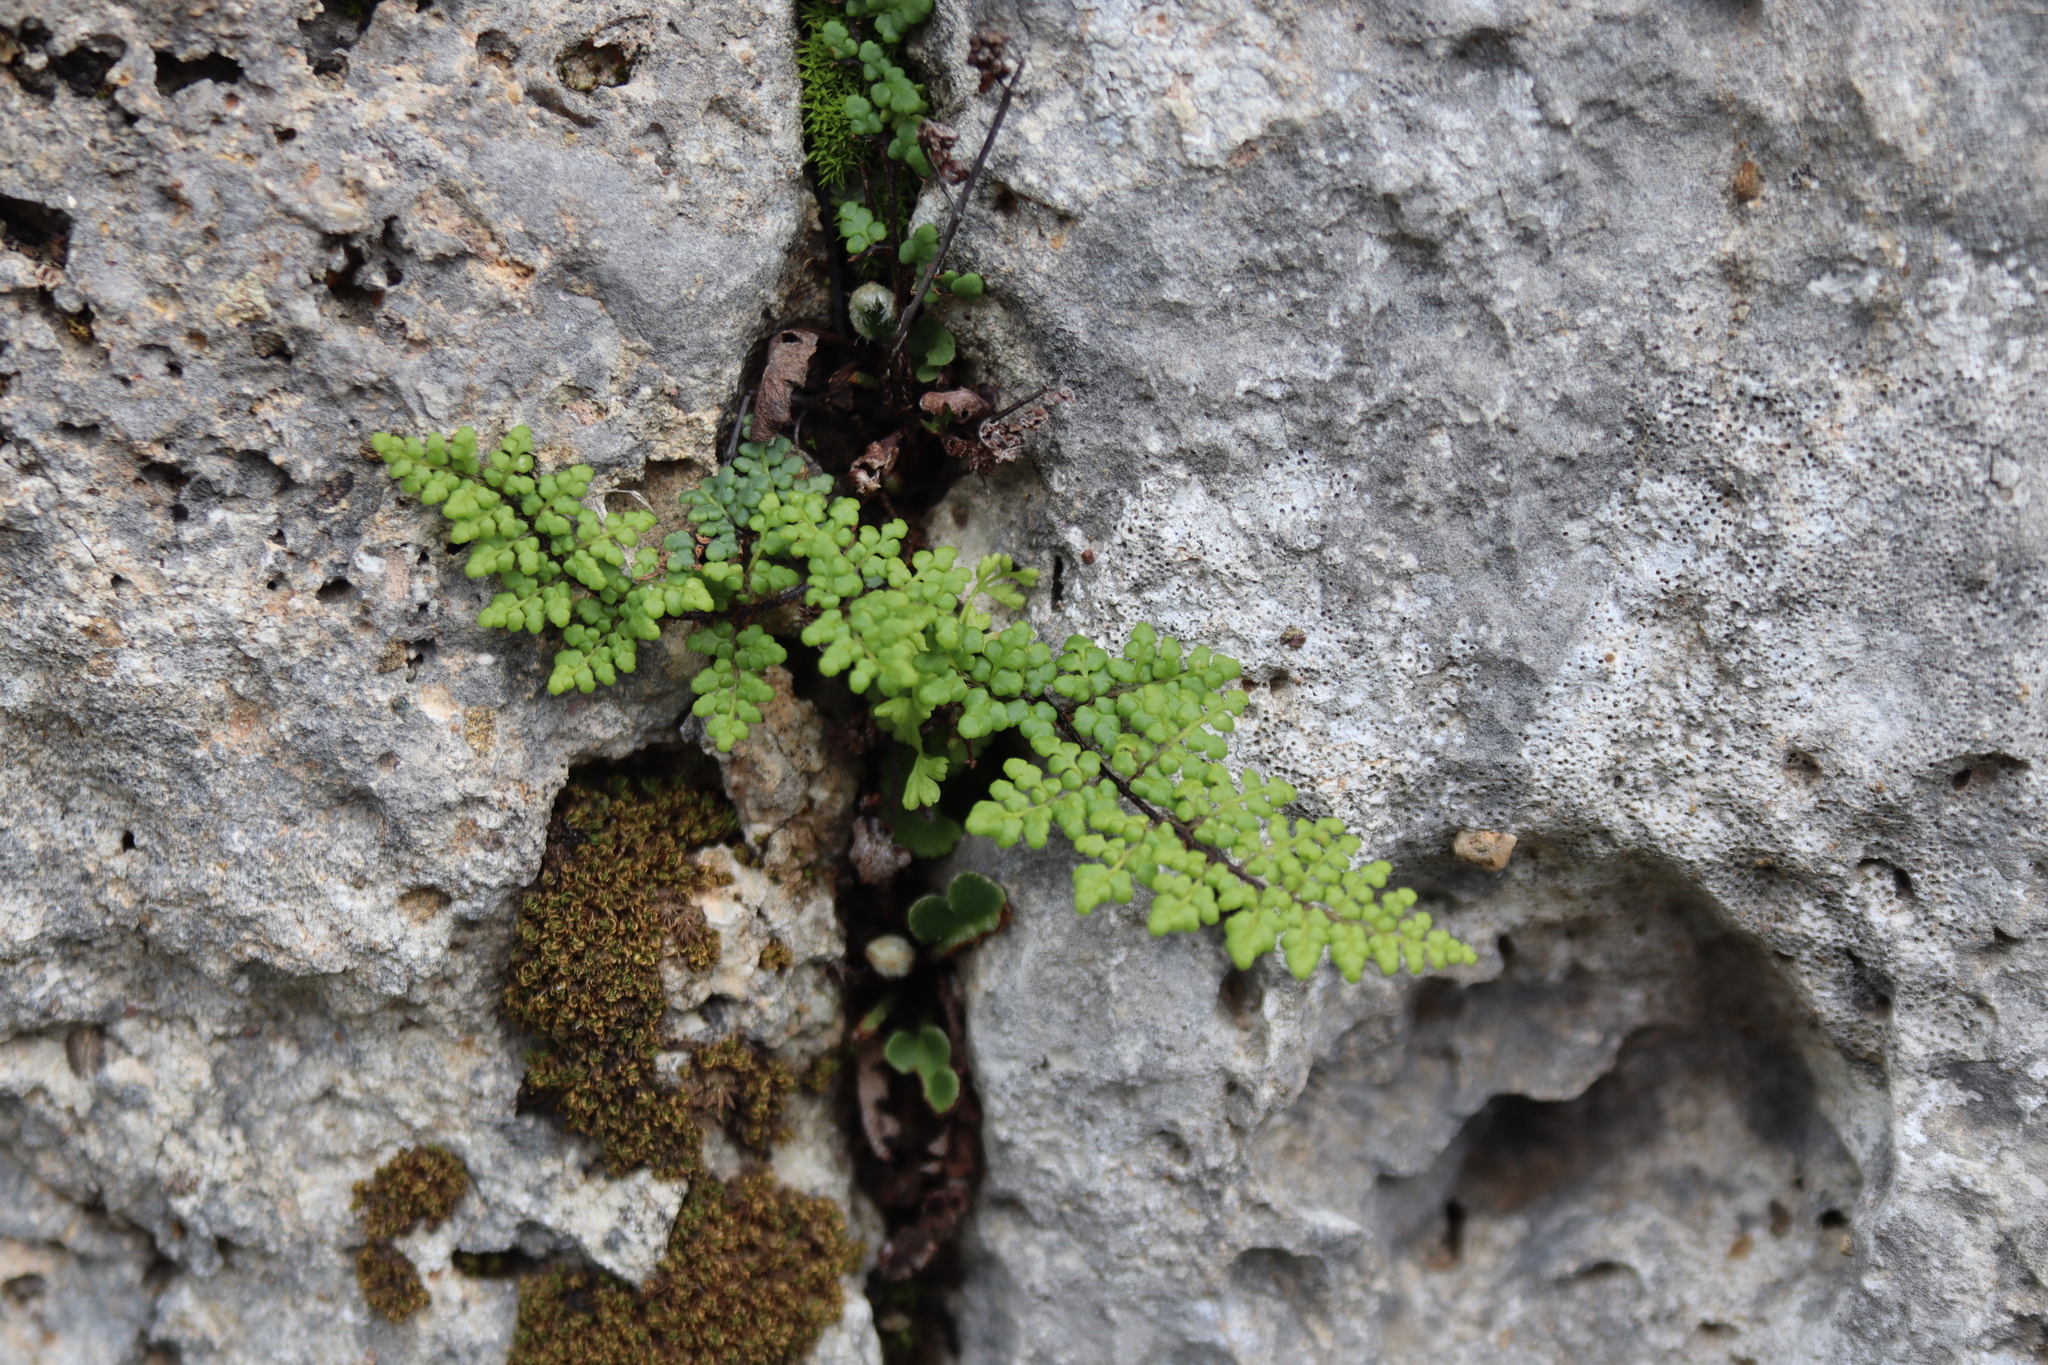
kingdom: Plantae
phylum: Tracheophyta
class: Polypodiopsida
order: Polypodiales
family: Pteridaceae
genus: Oeosporangium
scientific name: Oeosporangium pteridioides
